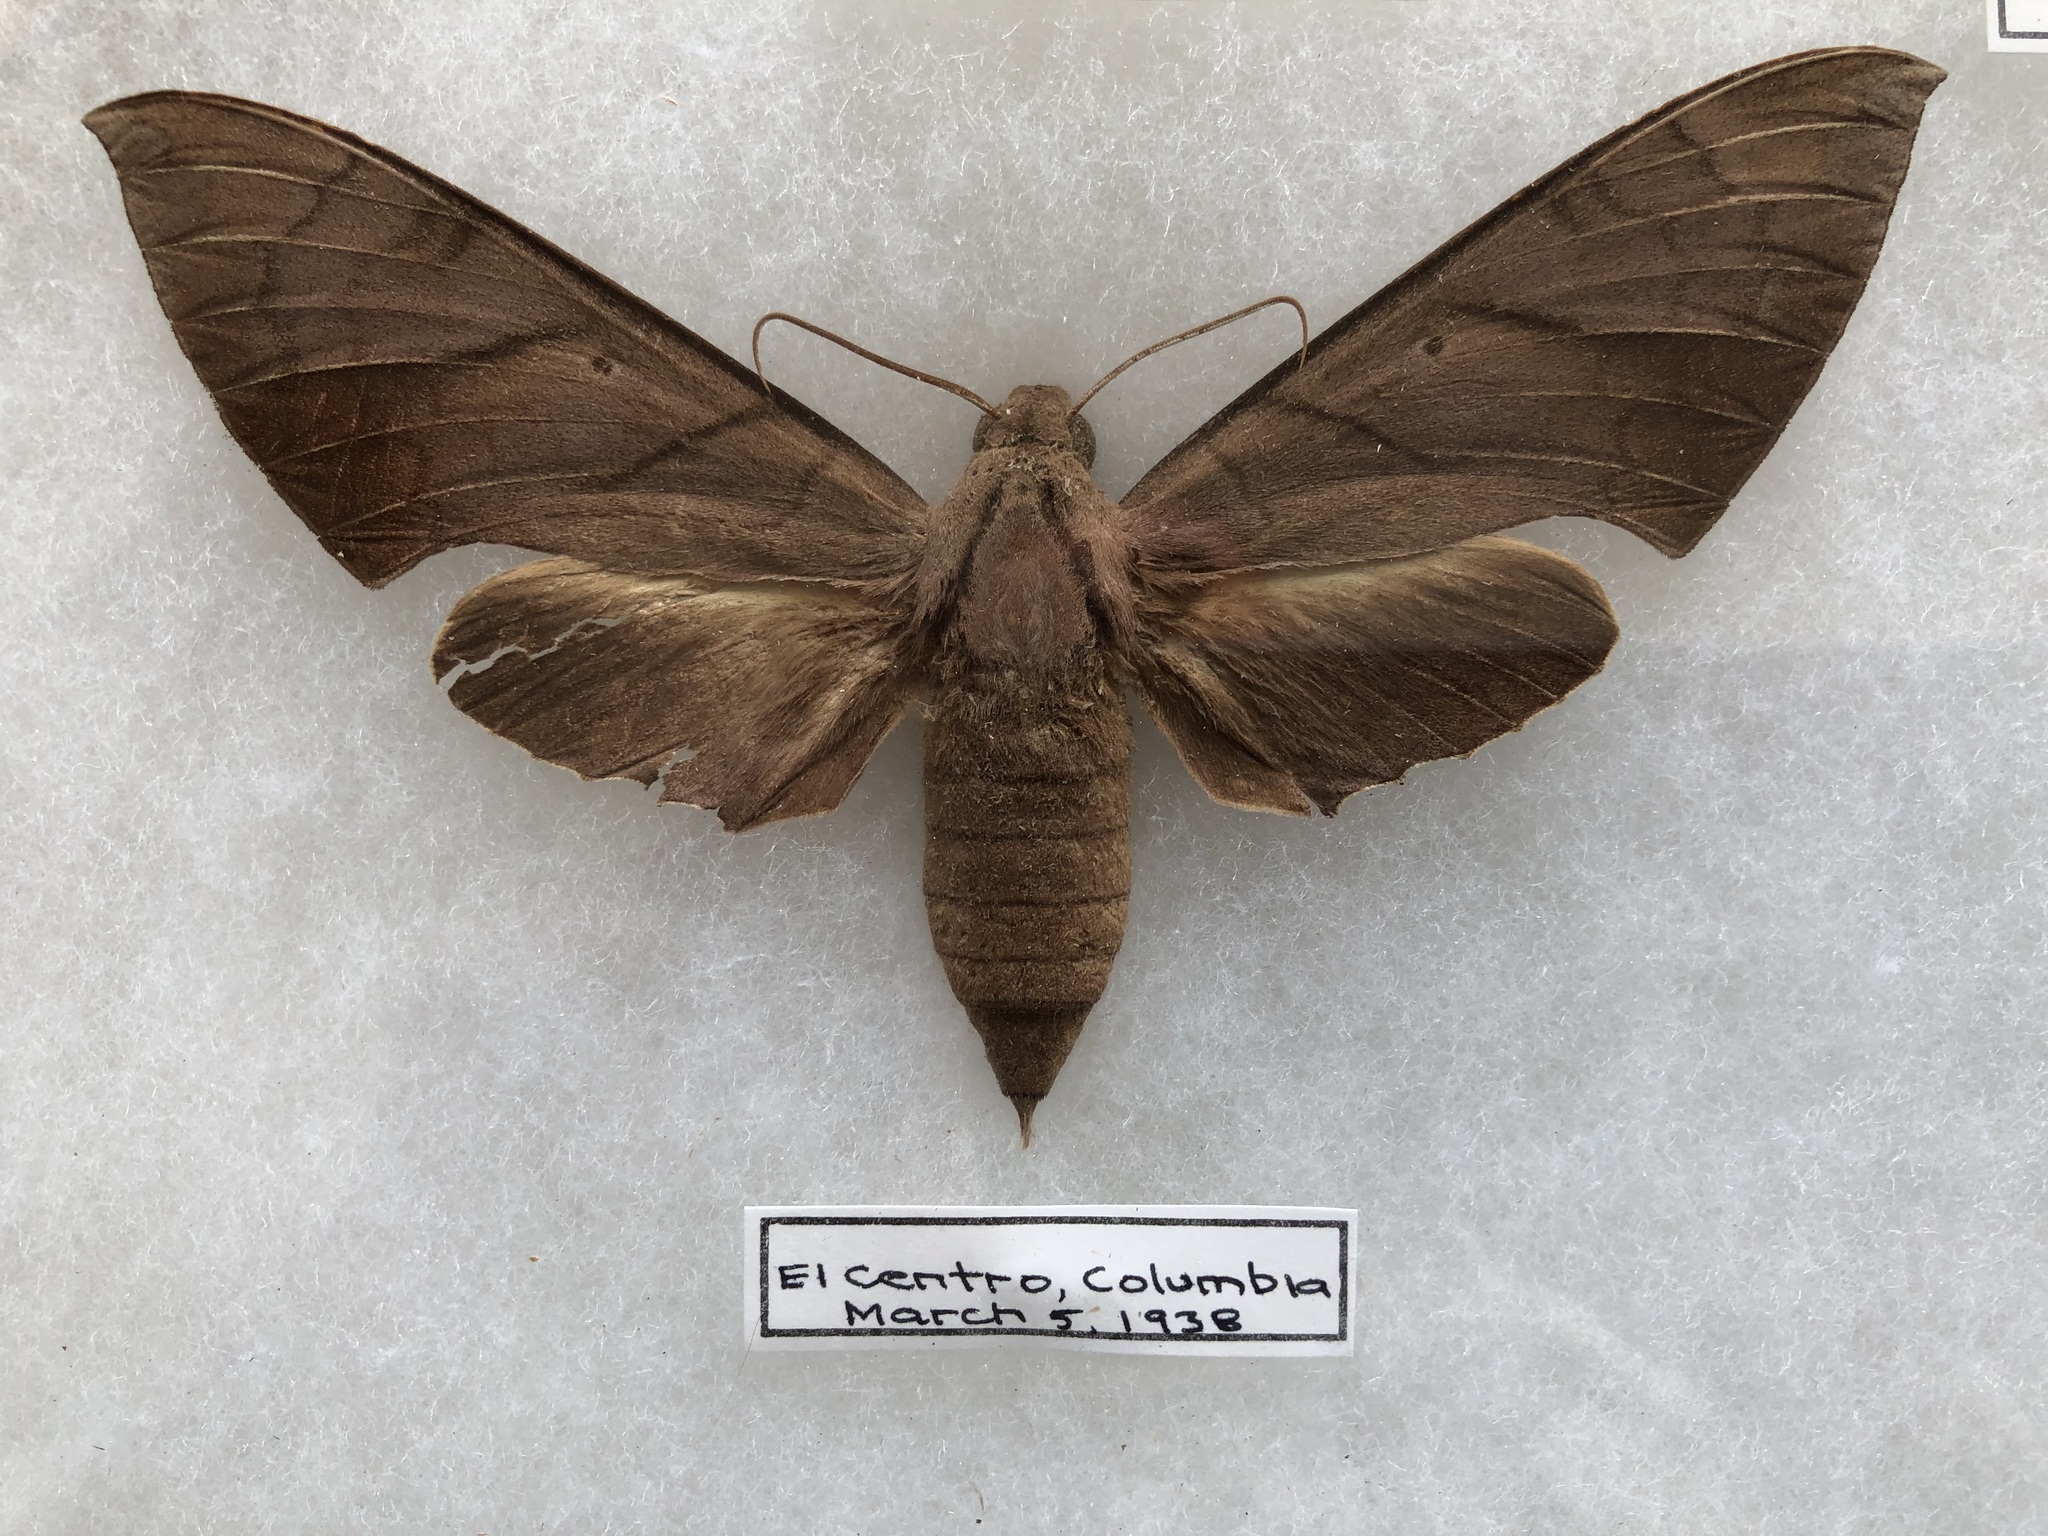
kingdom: Animalia
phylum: Arthropoda
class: Insecta
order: Lepidoptera
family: Sphingidae
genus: Pachylia
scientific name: Pachylia darceta
